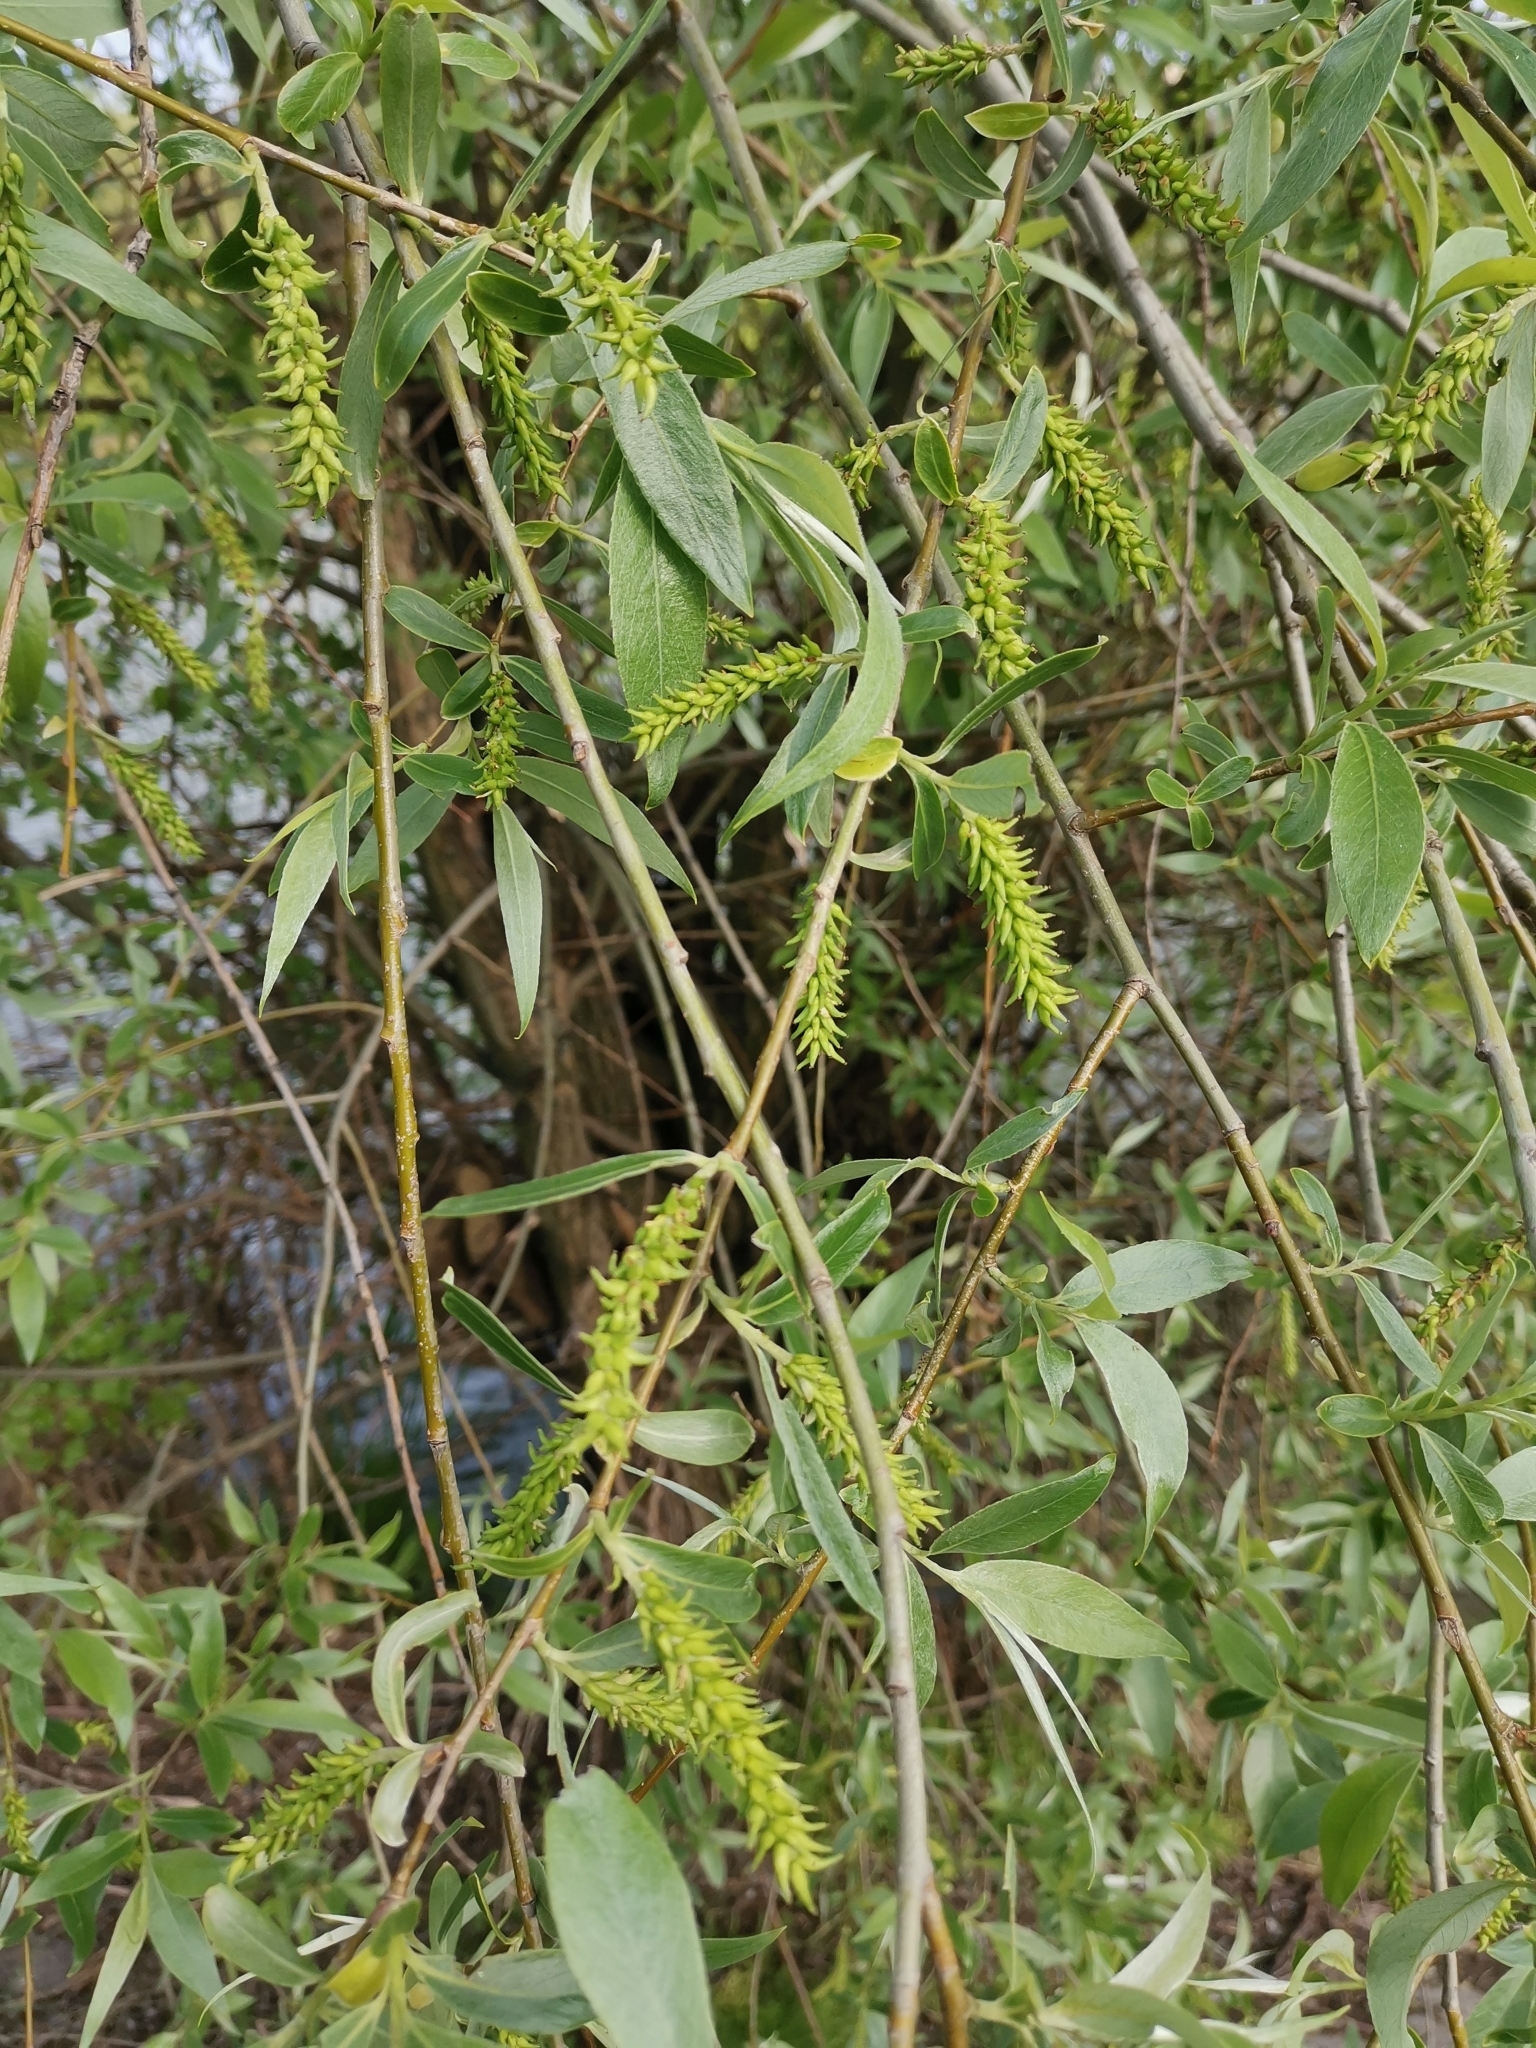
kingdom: Plantae
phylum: Tracheophyta
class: Magnoliopsida
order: Malpighiales
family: Salicaceae
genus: Salix
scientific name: Salix alba
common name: White willow
